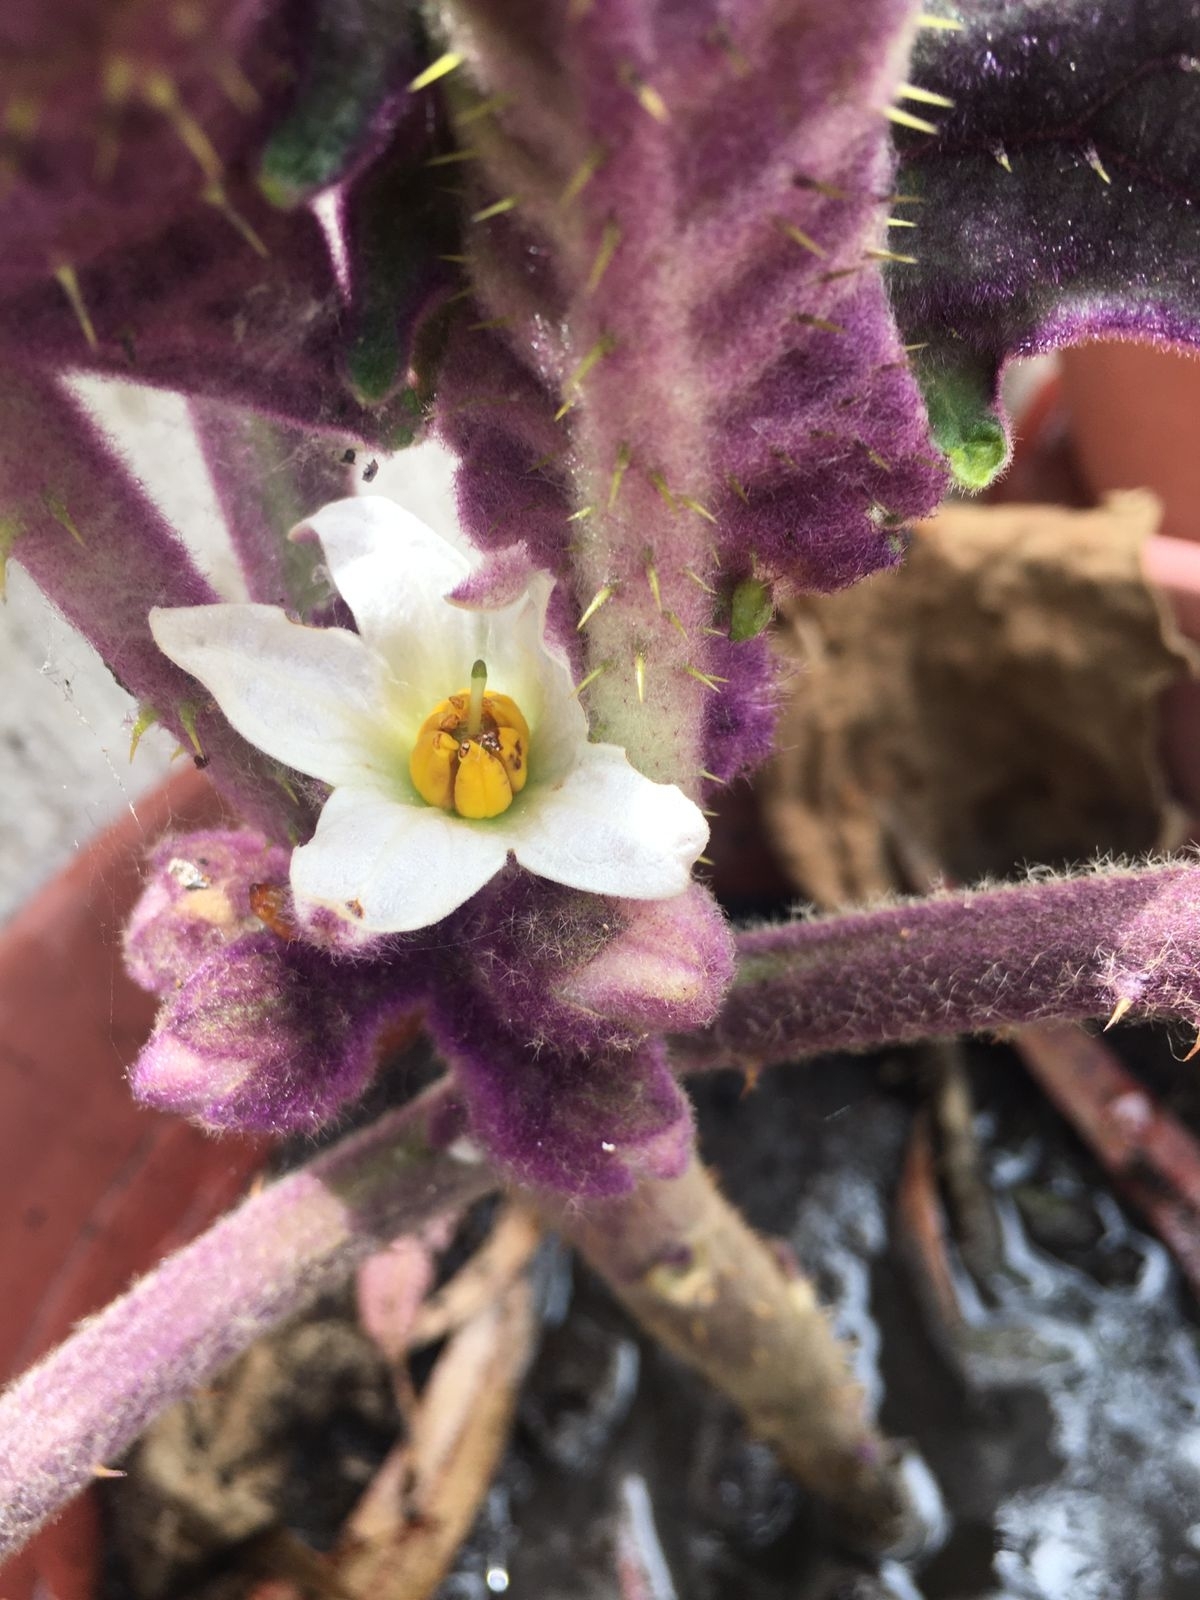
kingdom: Plantae
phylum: Tracheophyta
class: Magnoliopsida
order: Solanales
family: Solanaceae
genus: Solanum
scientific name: Solanum quitoense
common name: Quito-orange
